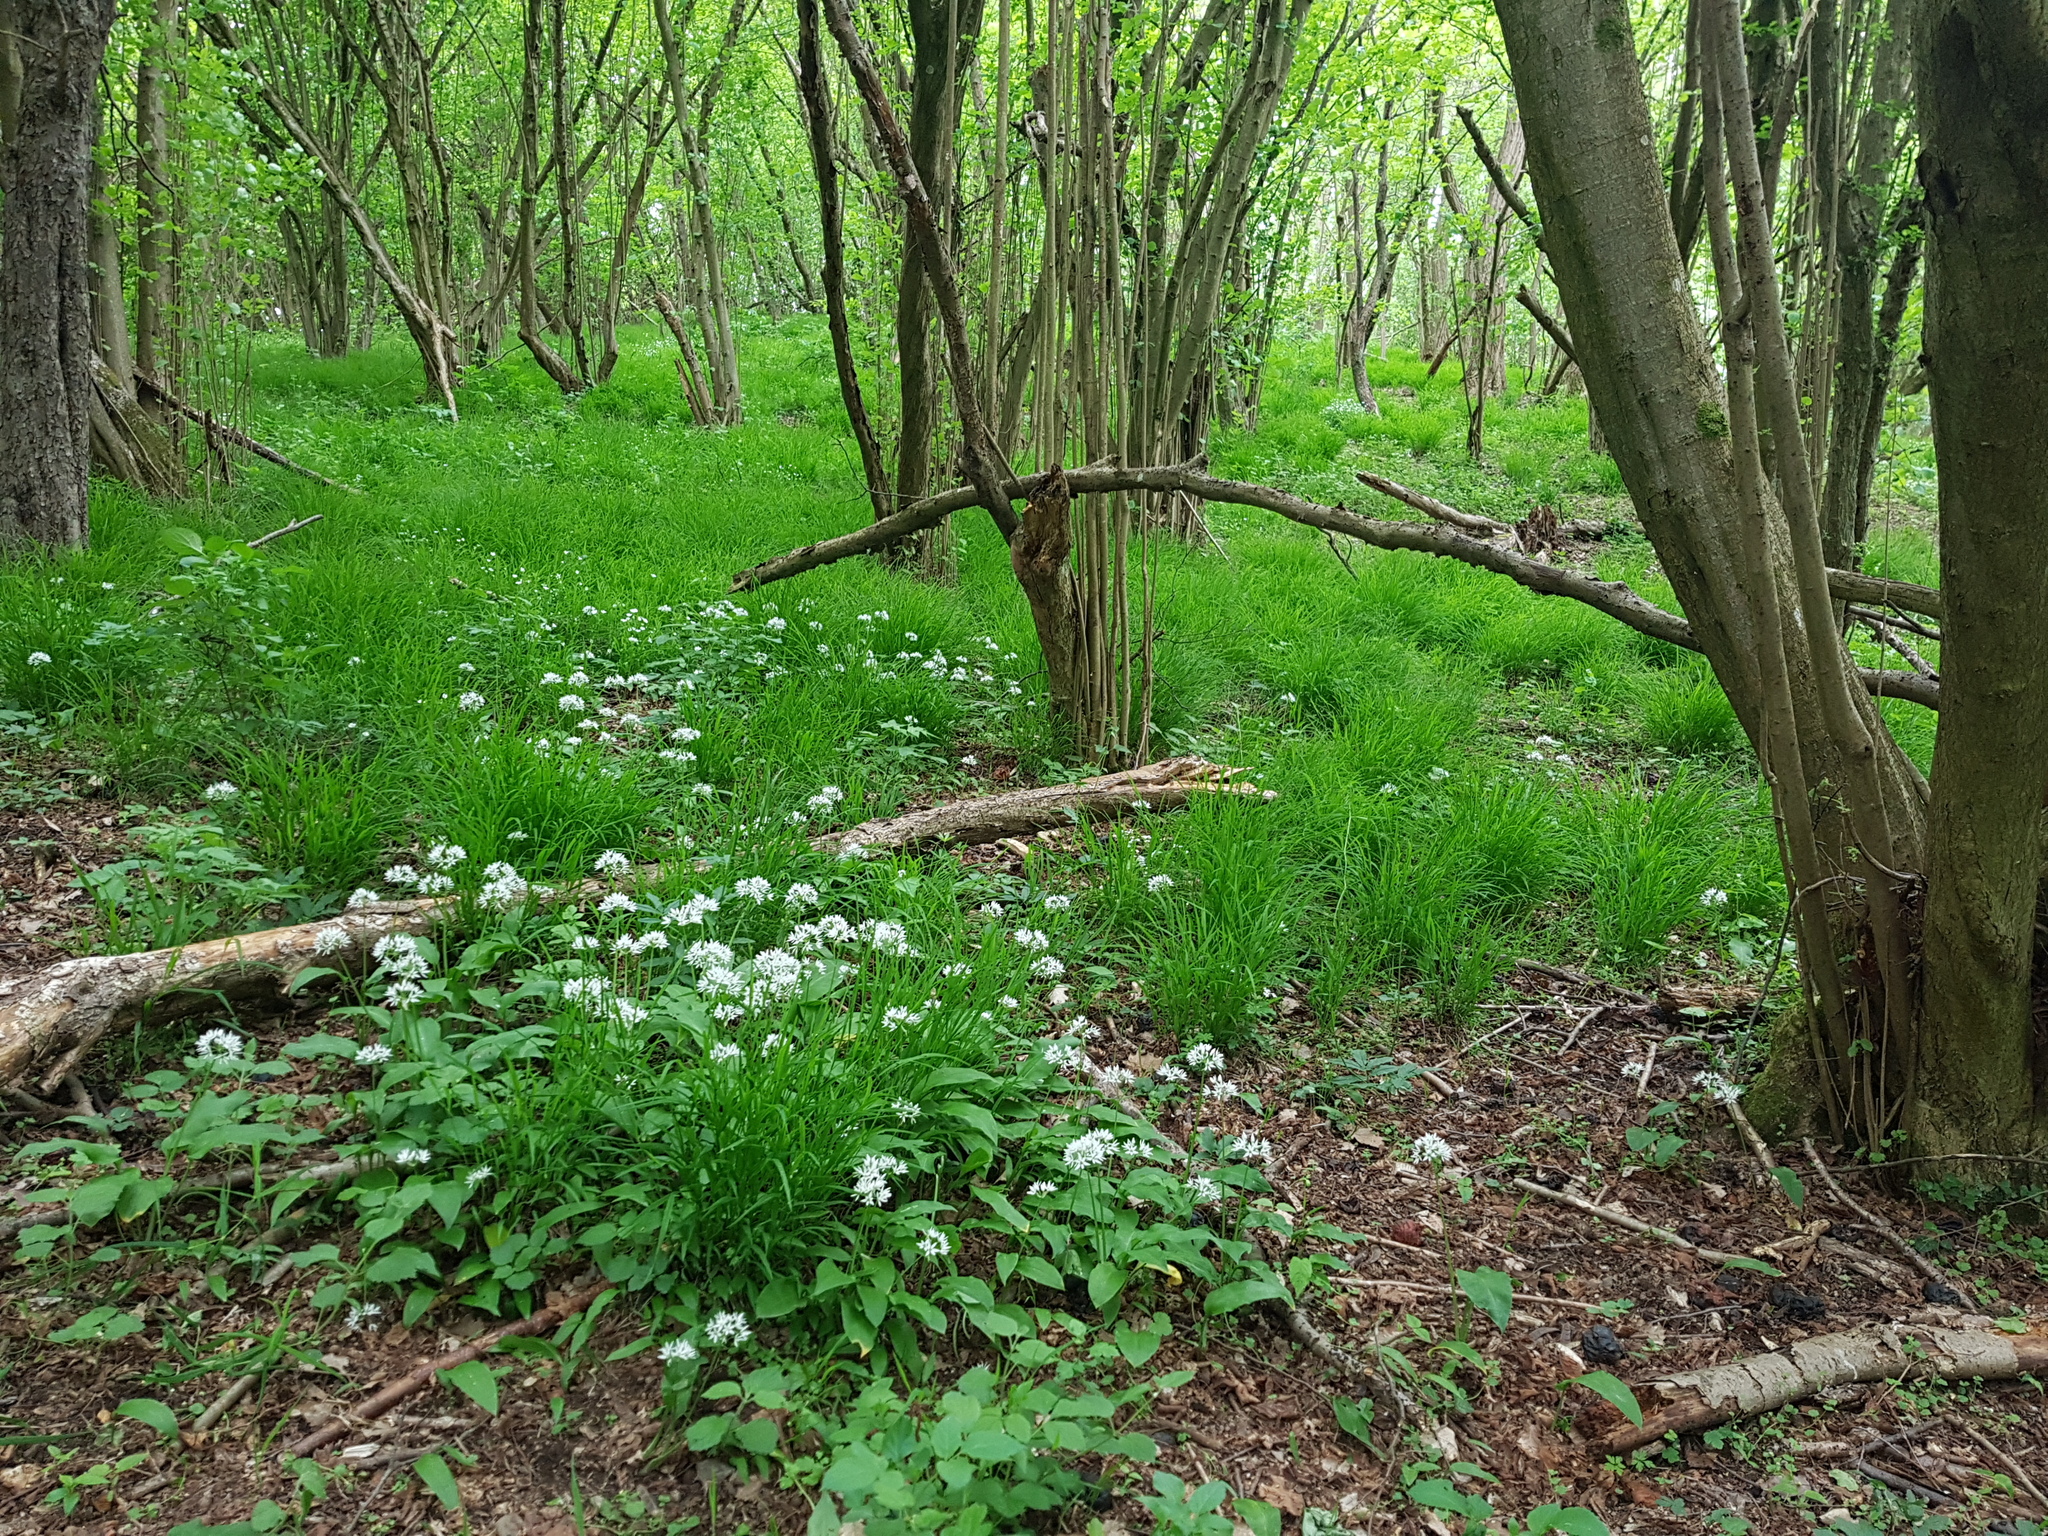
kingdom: Plantae
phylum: Tracheophyta
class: Liliopsida
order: Asparagales
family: Amaryllidaceae
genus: Allium
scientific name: Allium ursinum
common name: Ramsons
